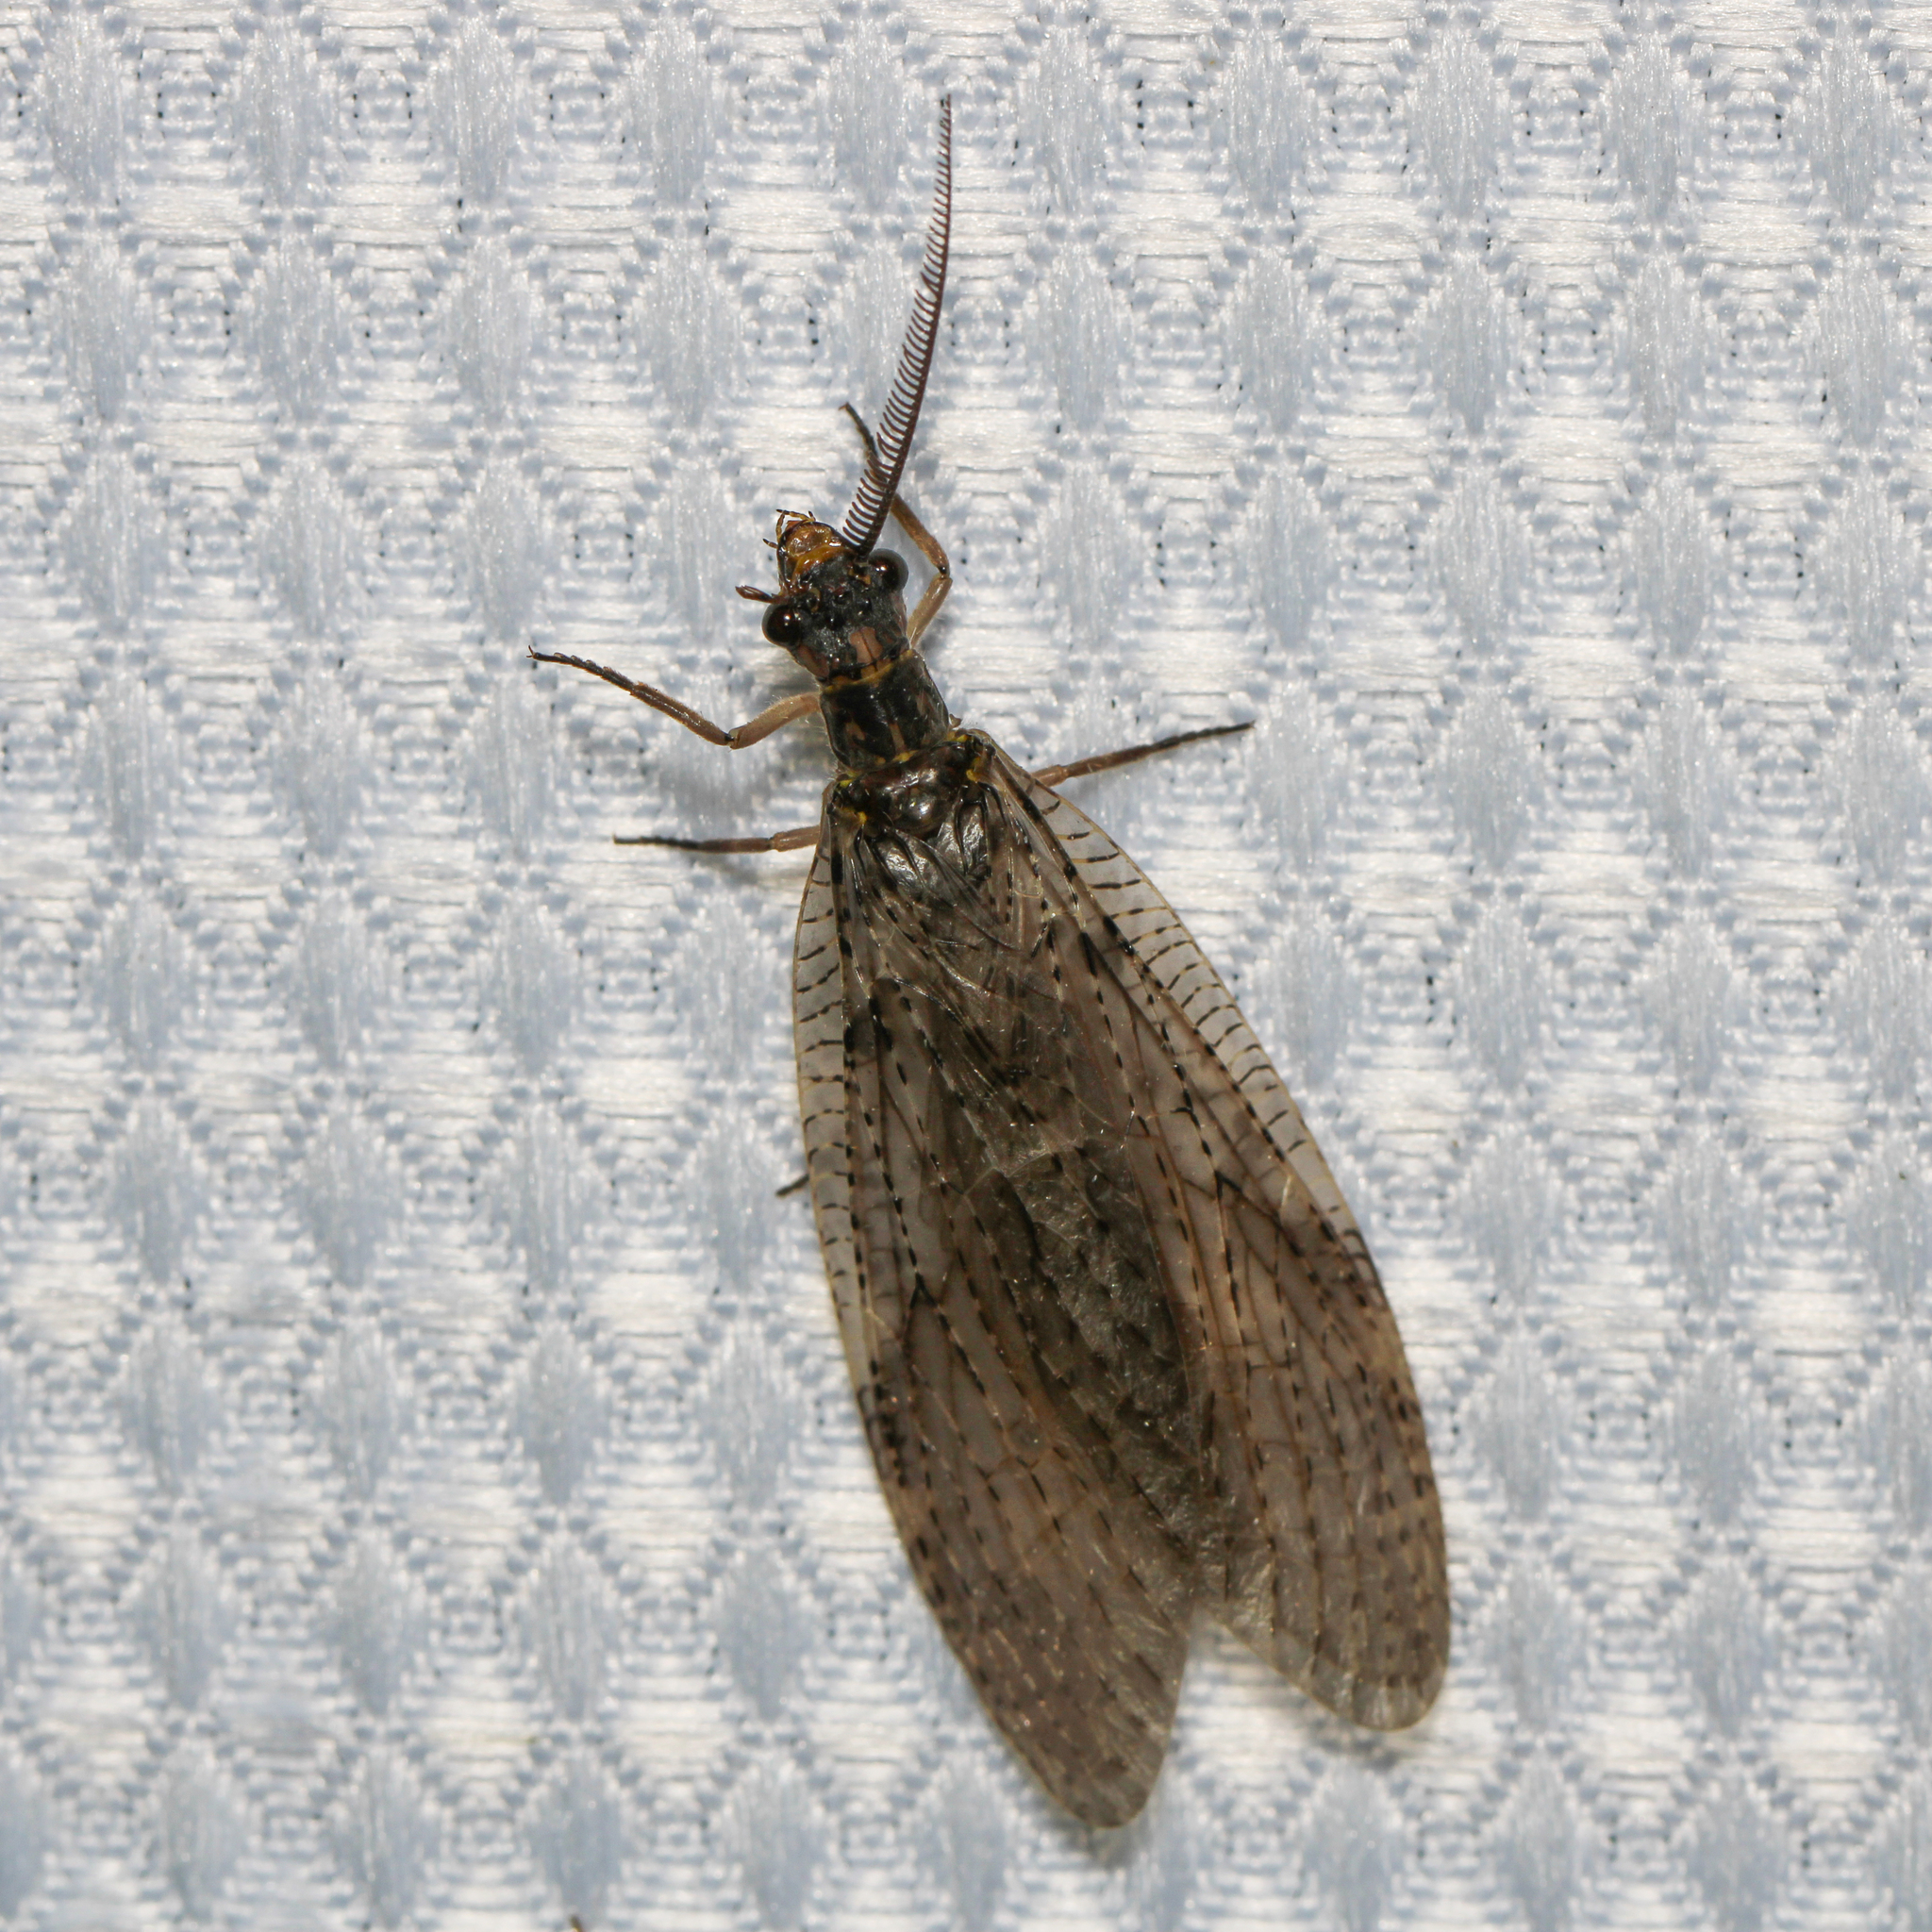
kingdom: Animalia
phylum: Arthropoda
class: Insecta
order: Megaloptera
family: Corydalidae
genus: Chauliodes
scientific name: Chauliodes pectinicornis
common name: Summer fishfly
